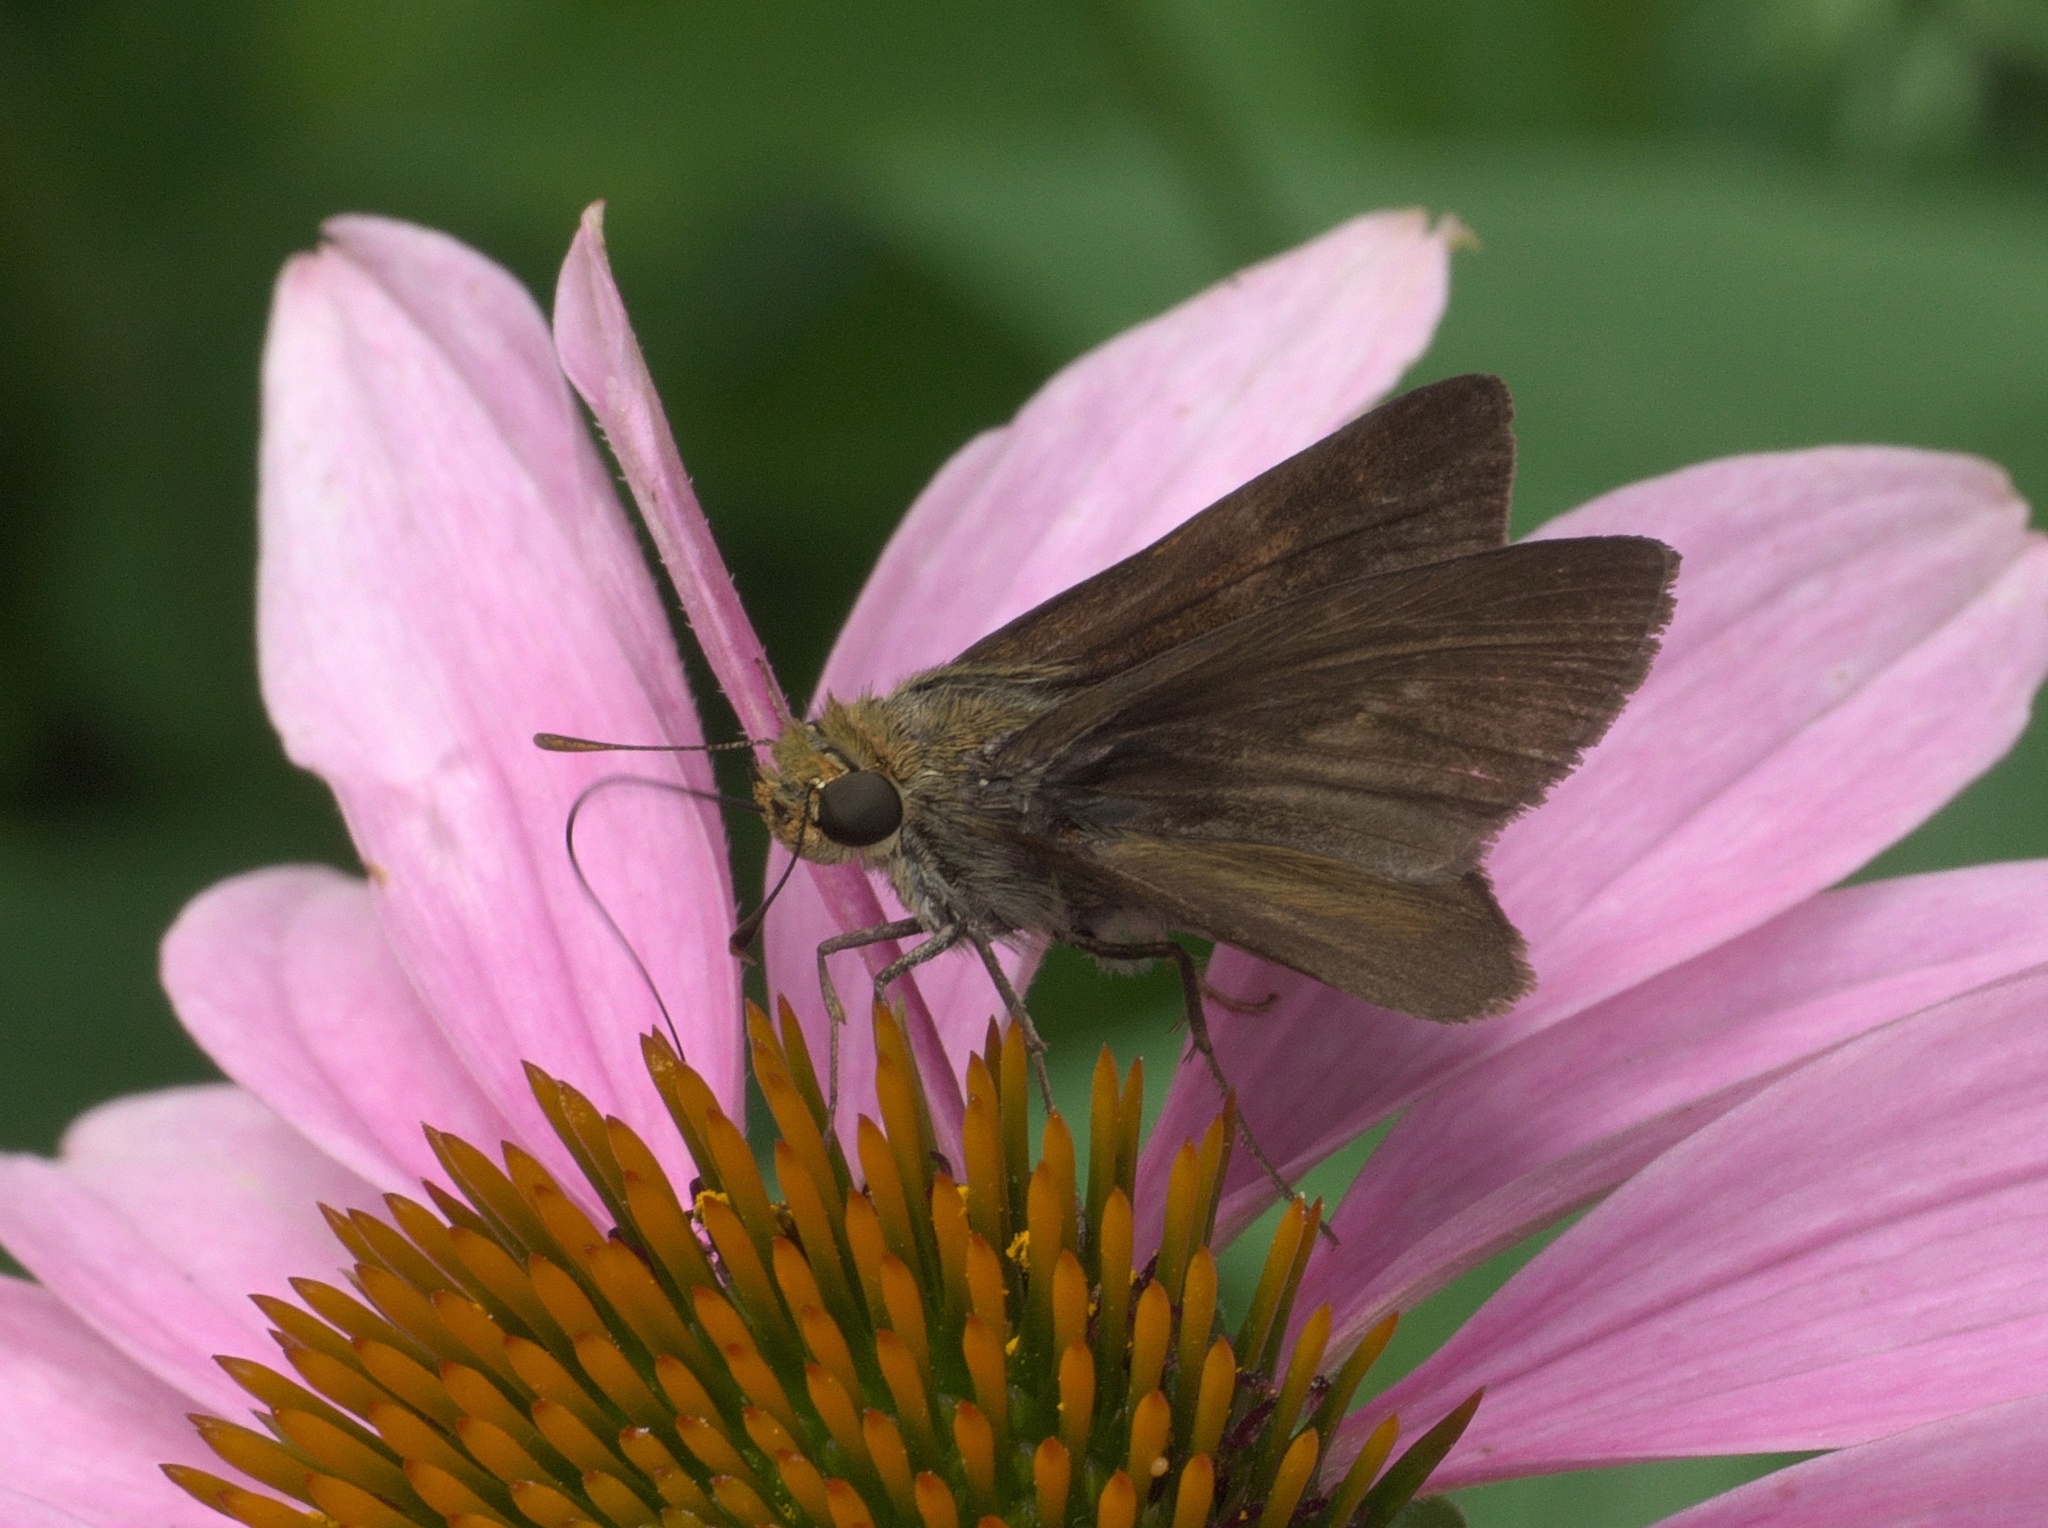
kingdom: Animalia
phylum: Arthropoda
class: Insecta
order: Lepidoptera
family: Hesperiidae
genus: Euphyes
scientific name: Euphyes vestris
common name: Dun skipper
